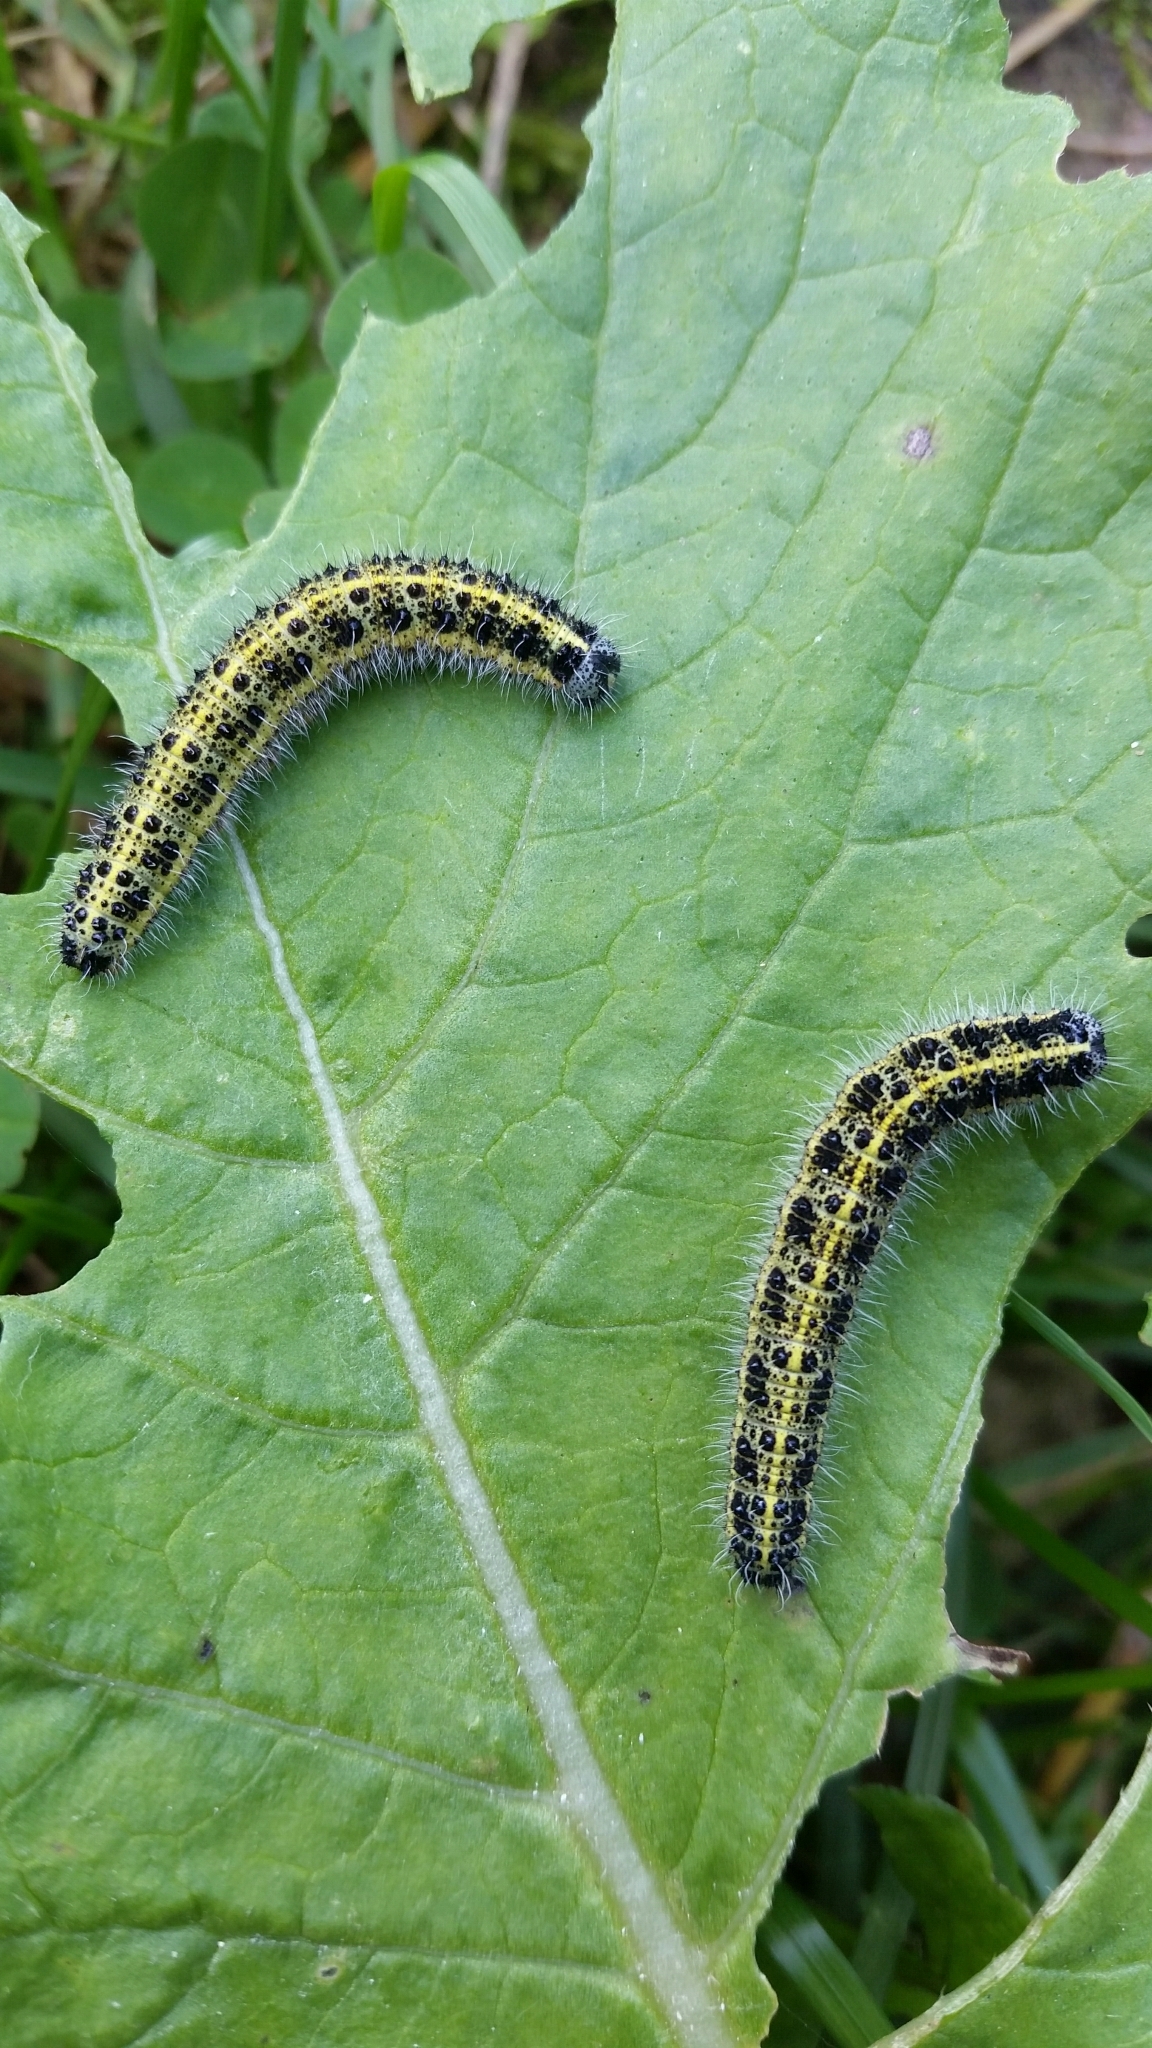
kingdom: Animalia
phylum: Arthropoda
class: Insecta
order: Lepidoptera
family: Pieridae
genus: Pieris
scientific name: Pieris brassicae
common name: Large white
